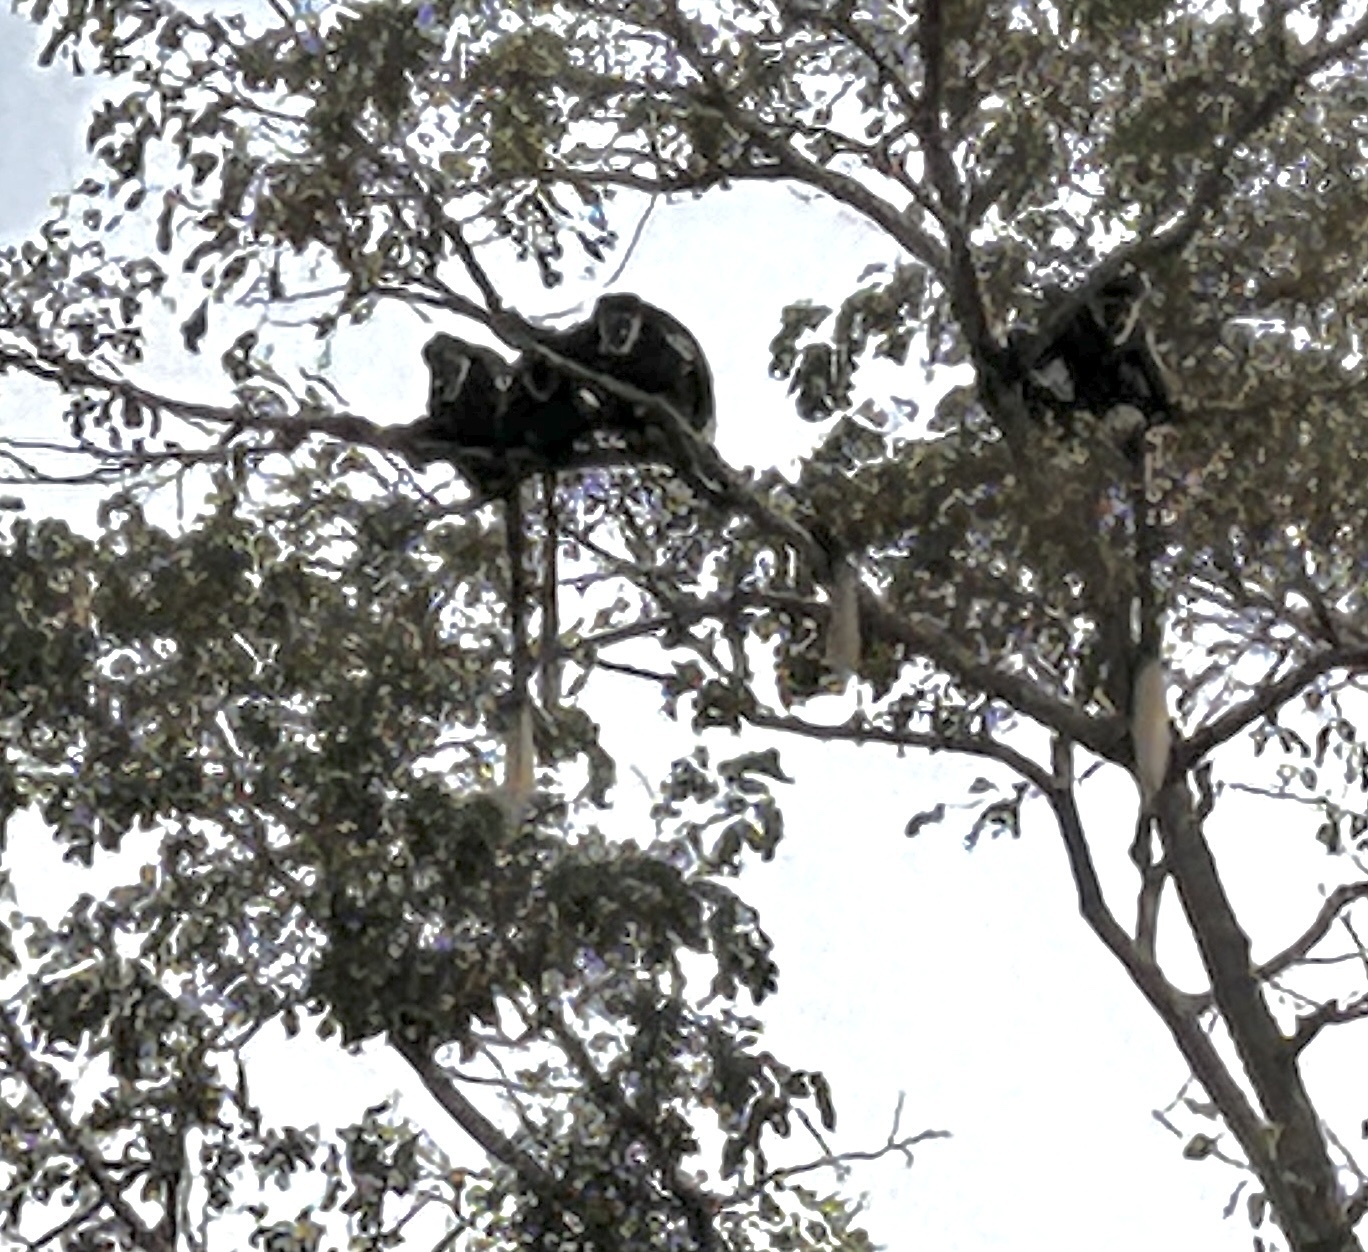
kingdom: Animalia
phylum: Chordata
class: Mammalia
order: Primates
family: Cercopithecidae
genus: Colobus
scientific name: Colobus guereza
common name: Mantled guereza
